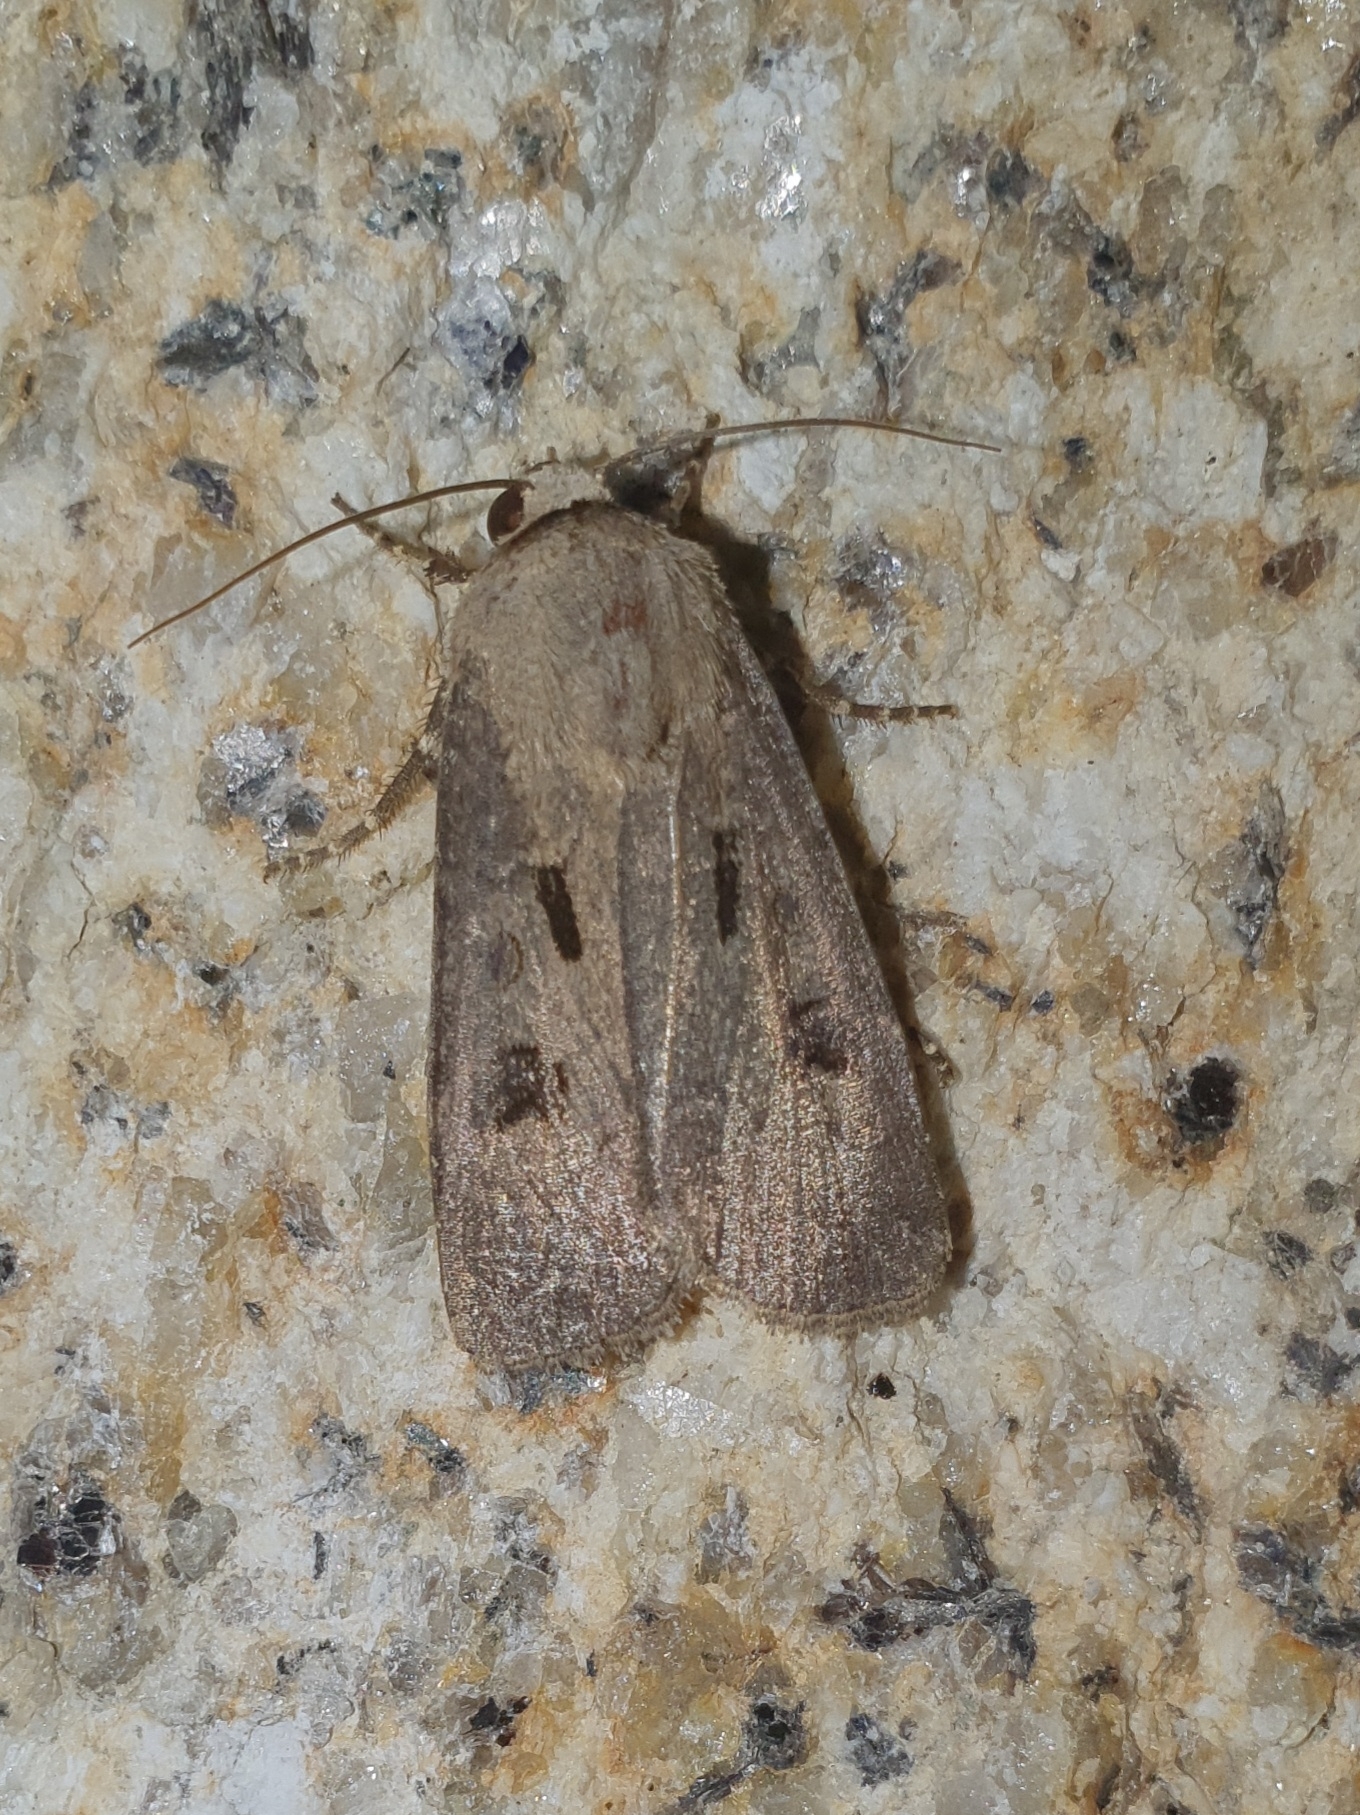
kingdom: Animalia
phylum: Arthropoda
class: Insecta
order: Lepidoptera
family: Noctuidae
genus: Agrotis
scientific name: Agrotis exclamationis
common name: Heart and dart
